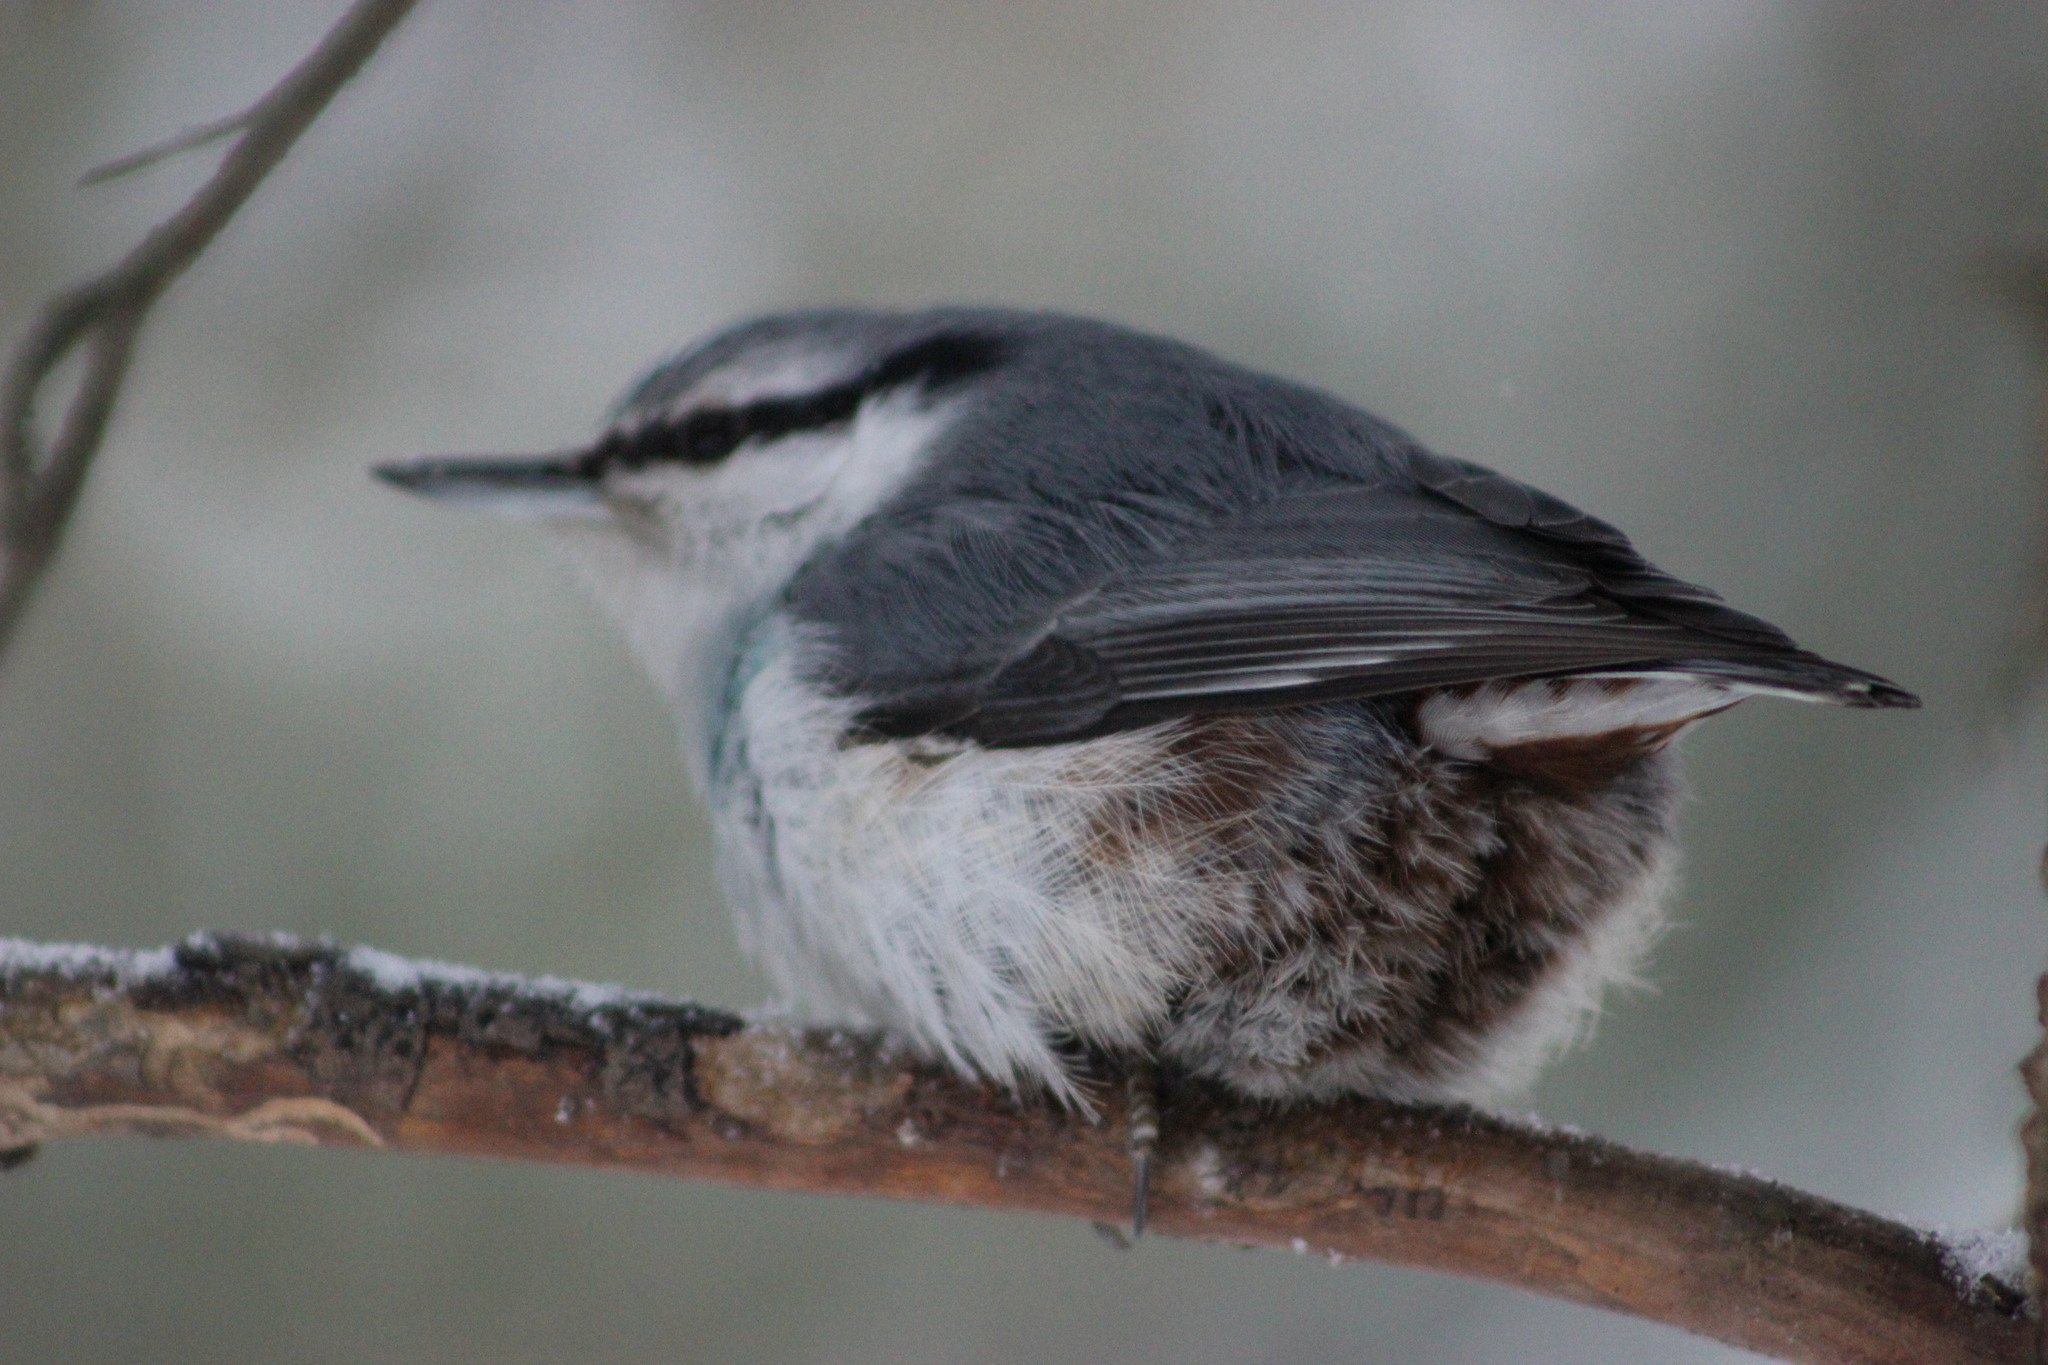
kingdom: Animalia
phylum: Chordata
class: Aves
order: Passeriformes
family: Sittidae
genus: Sitta
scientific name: Sitta europaea
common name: Eurasian nuthatch
